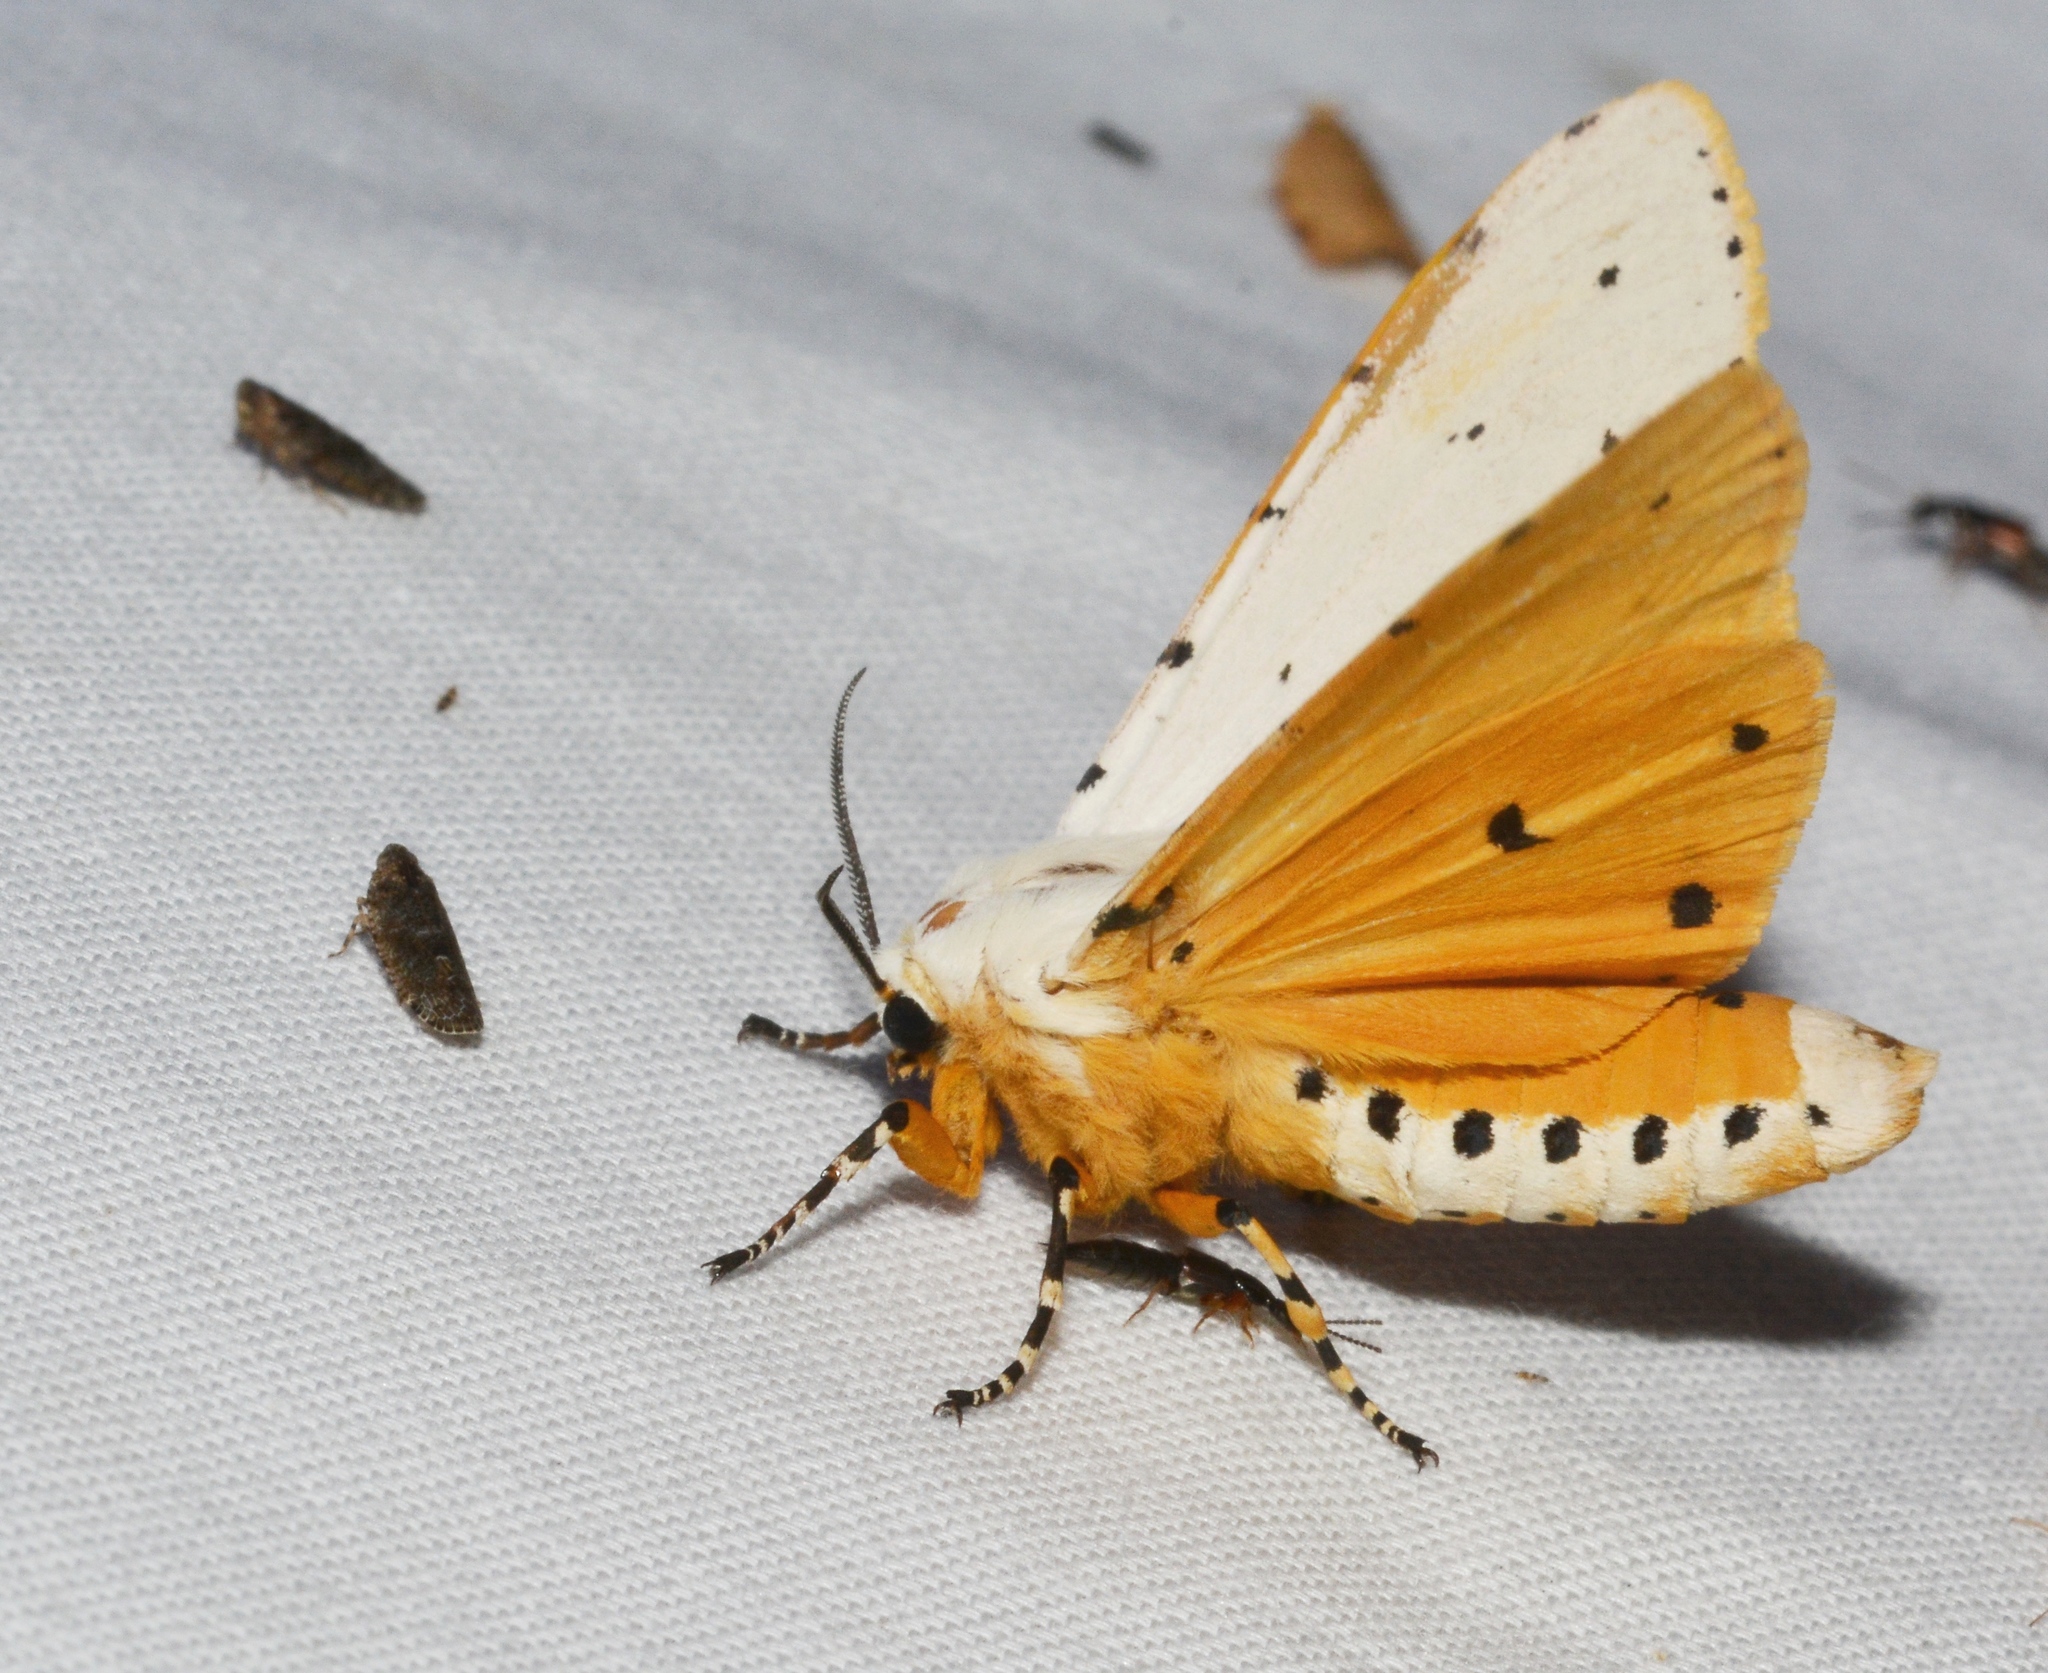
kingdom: Animalia
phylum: Arthropoda
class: Insecta
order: Lepidoptera
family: Erebidae
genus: Estigmene
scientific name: Estigmene acrea
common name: Salt marsh moth
